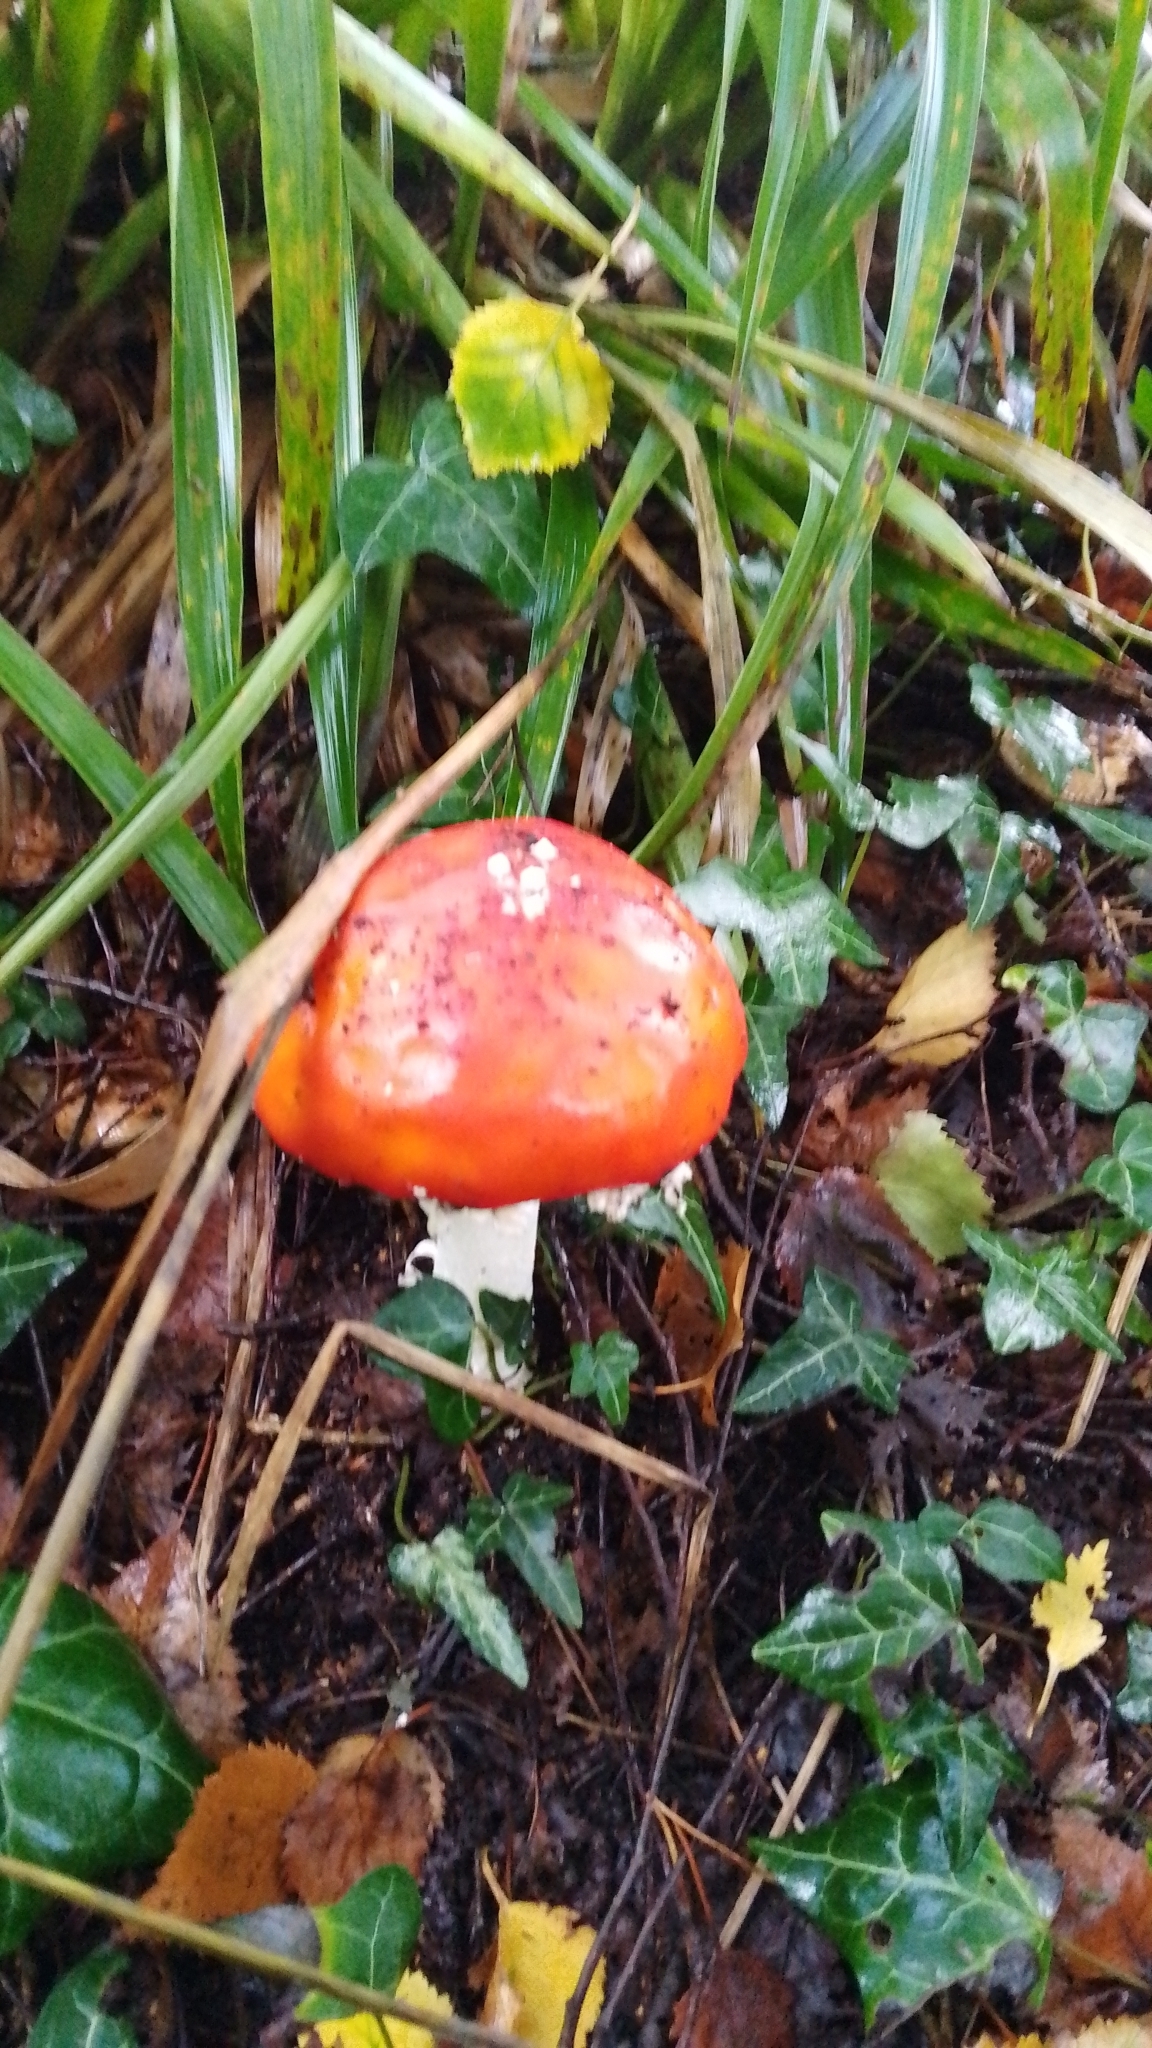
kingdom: Fungi
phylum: Basidiomycota
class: Agaricomycetes
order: Agaricales
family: Amanitaceae
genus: Amanita
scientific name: Amanita muscaria
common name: Fly agaric
